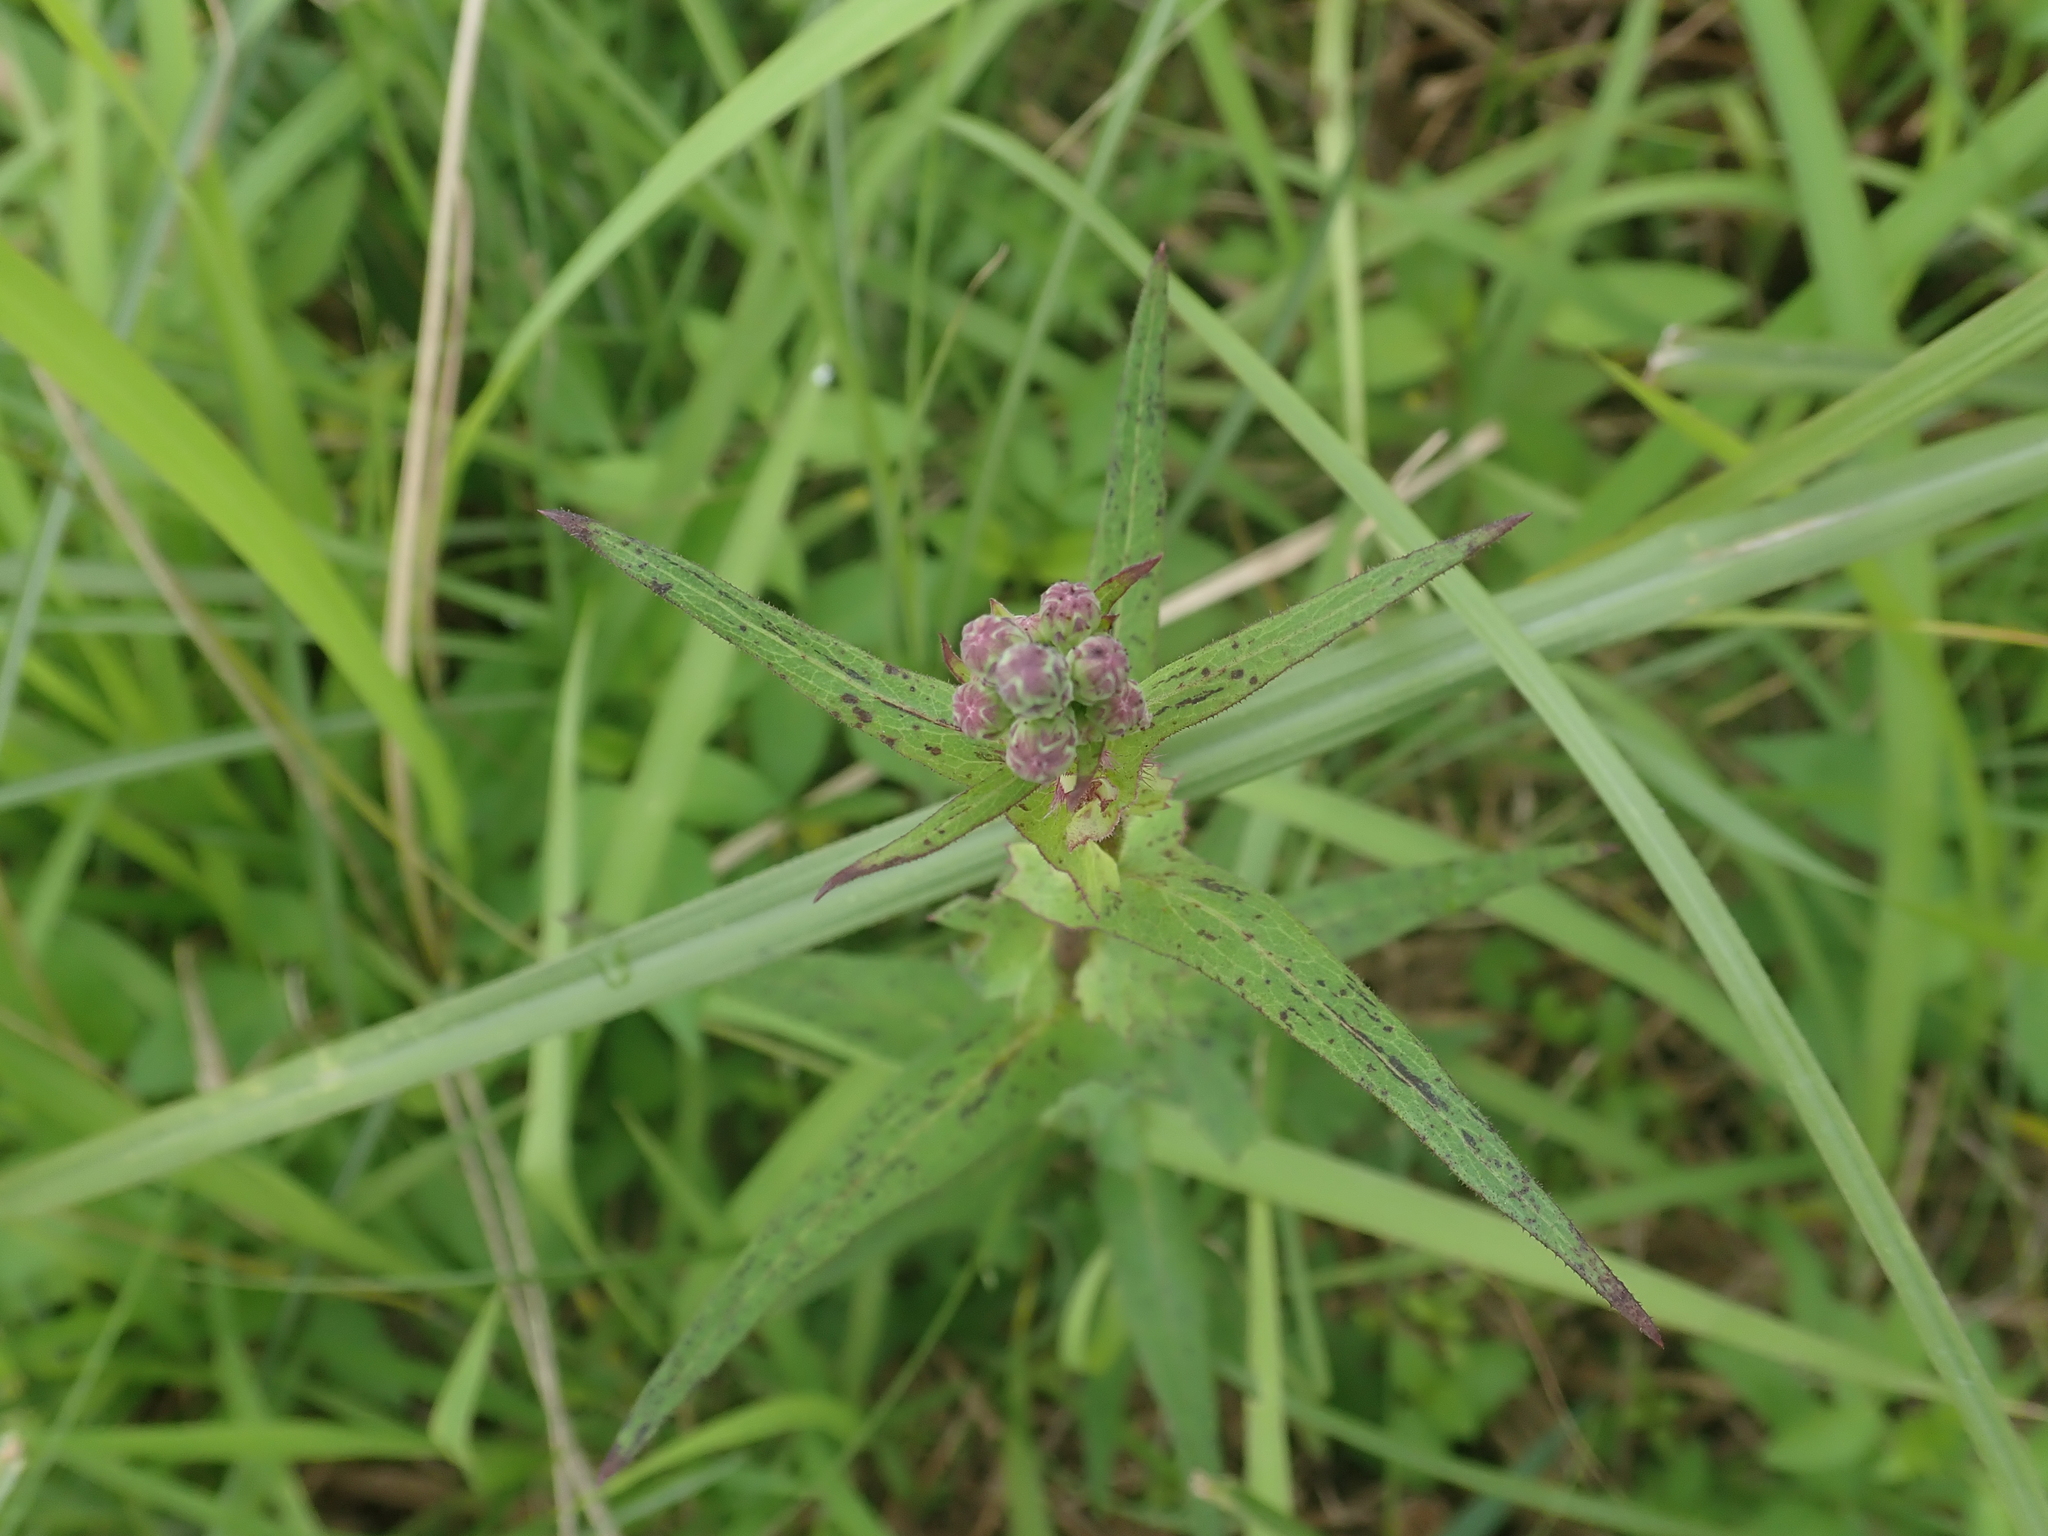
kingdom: Plantae
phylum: Tracheophyta
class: Magnoliopsida
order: Asterales
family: Asteraceae
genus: Lactuca
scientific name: Lactuca formosana
